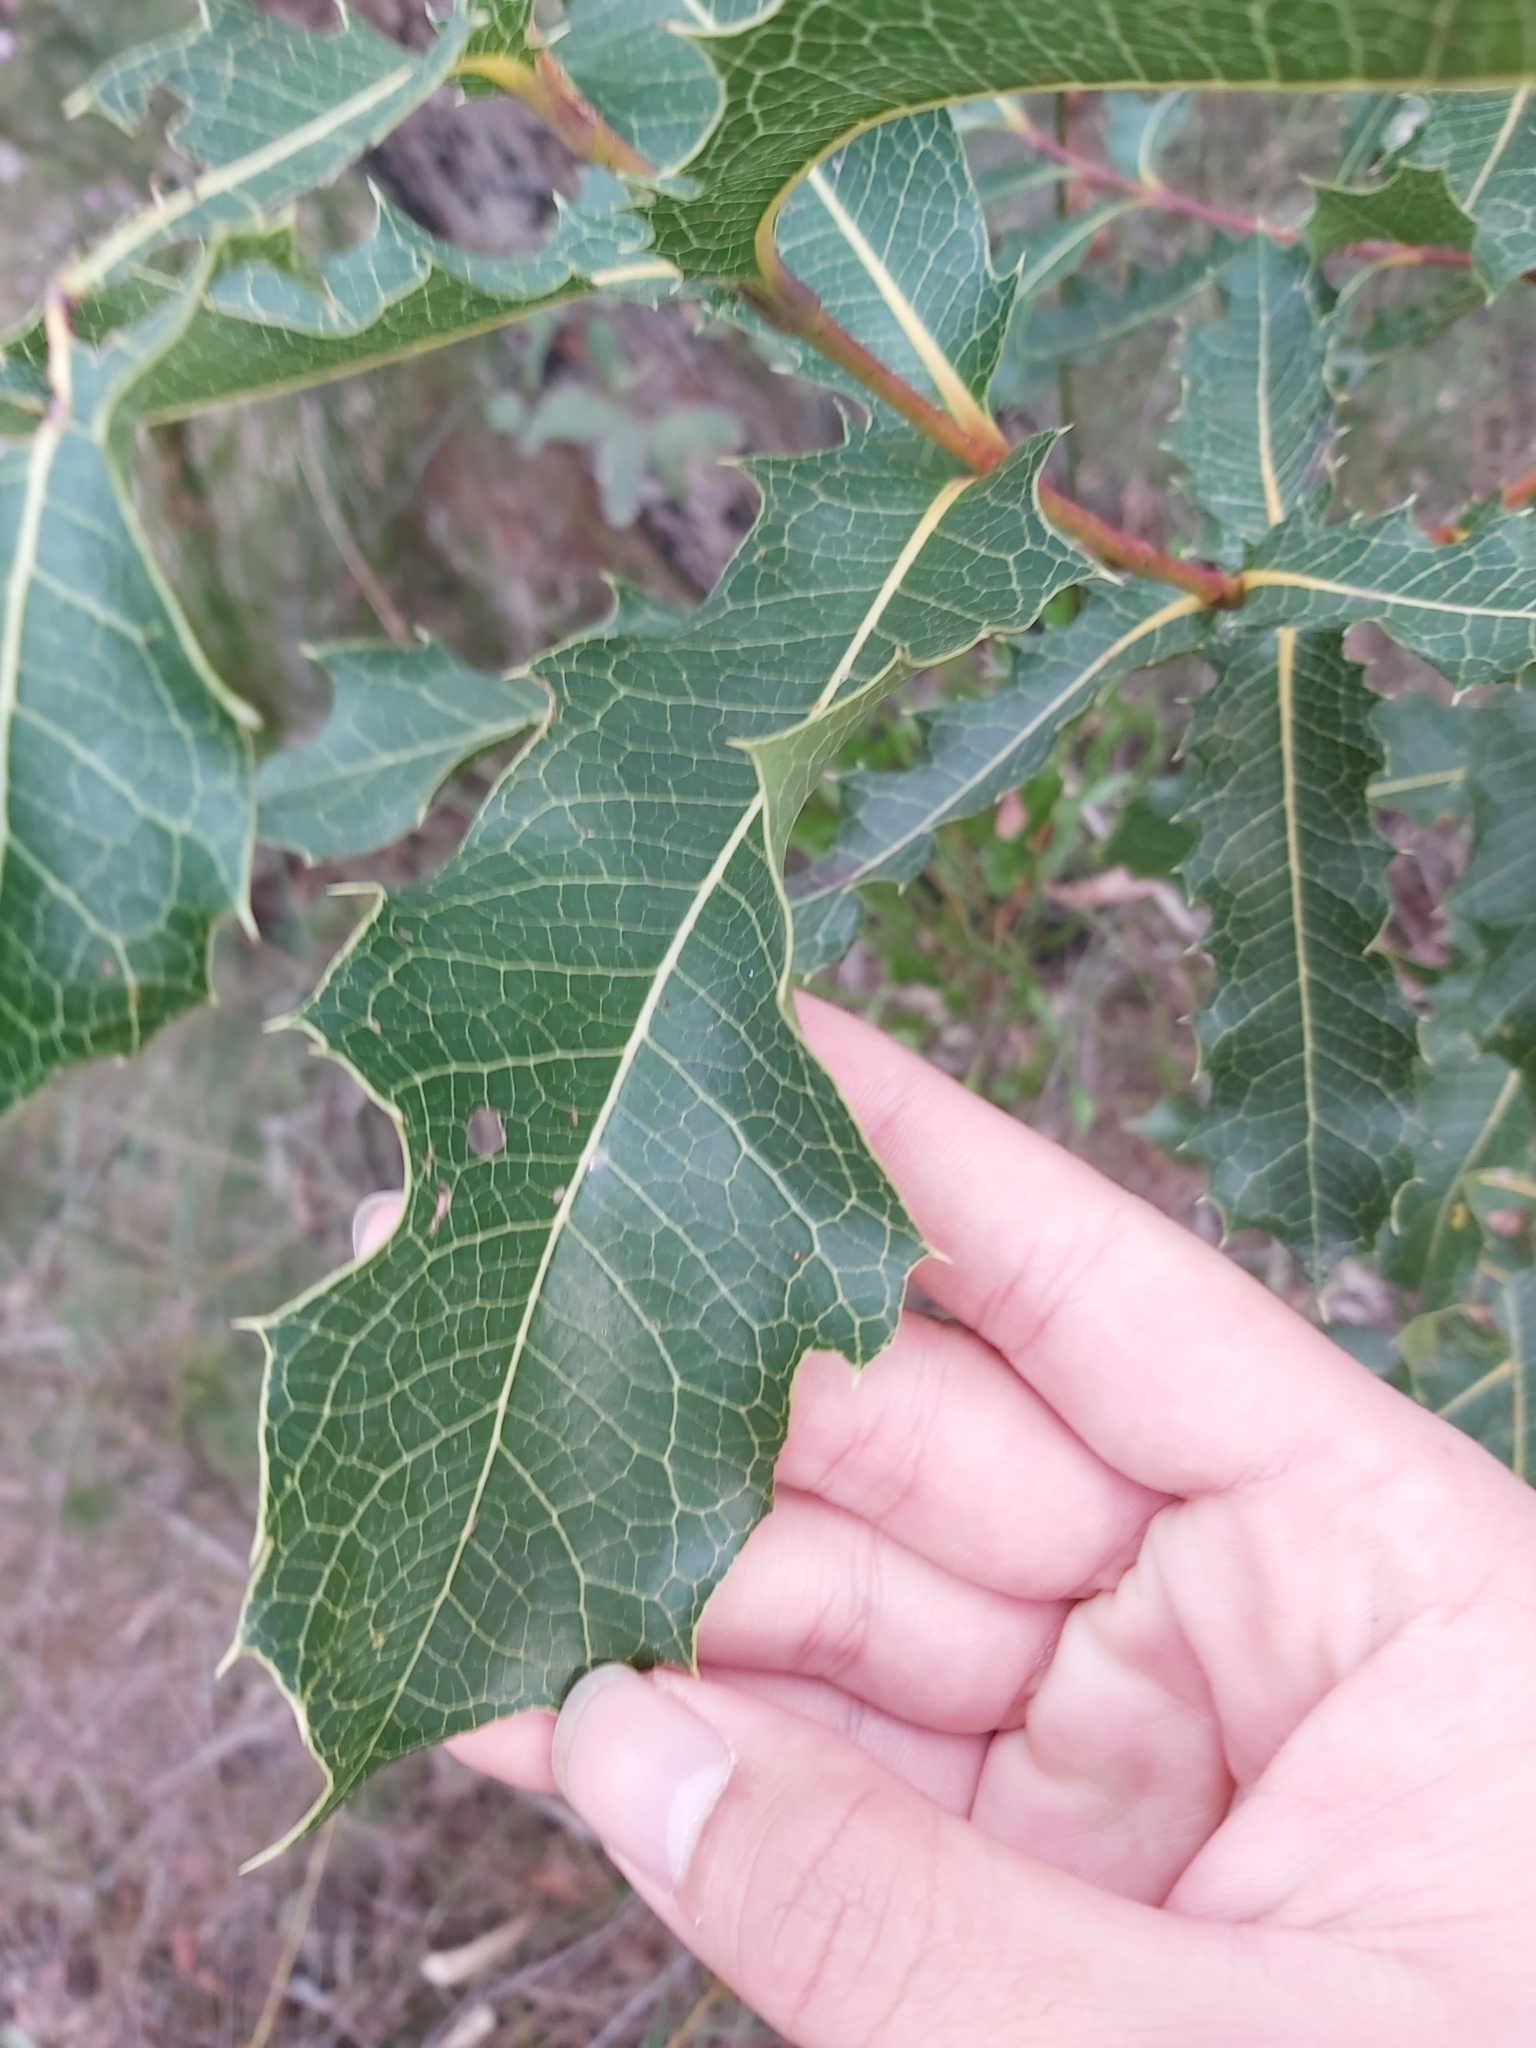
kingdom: Plantae
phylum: Tracheophyta
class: Magnoliopsida
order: Proteales
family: Proteaceae
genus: Xylomelum
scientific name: Xylomelum pyriforme
